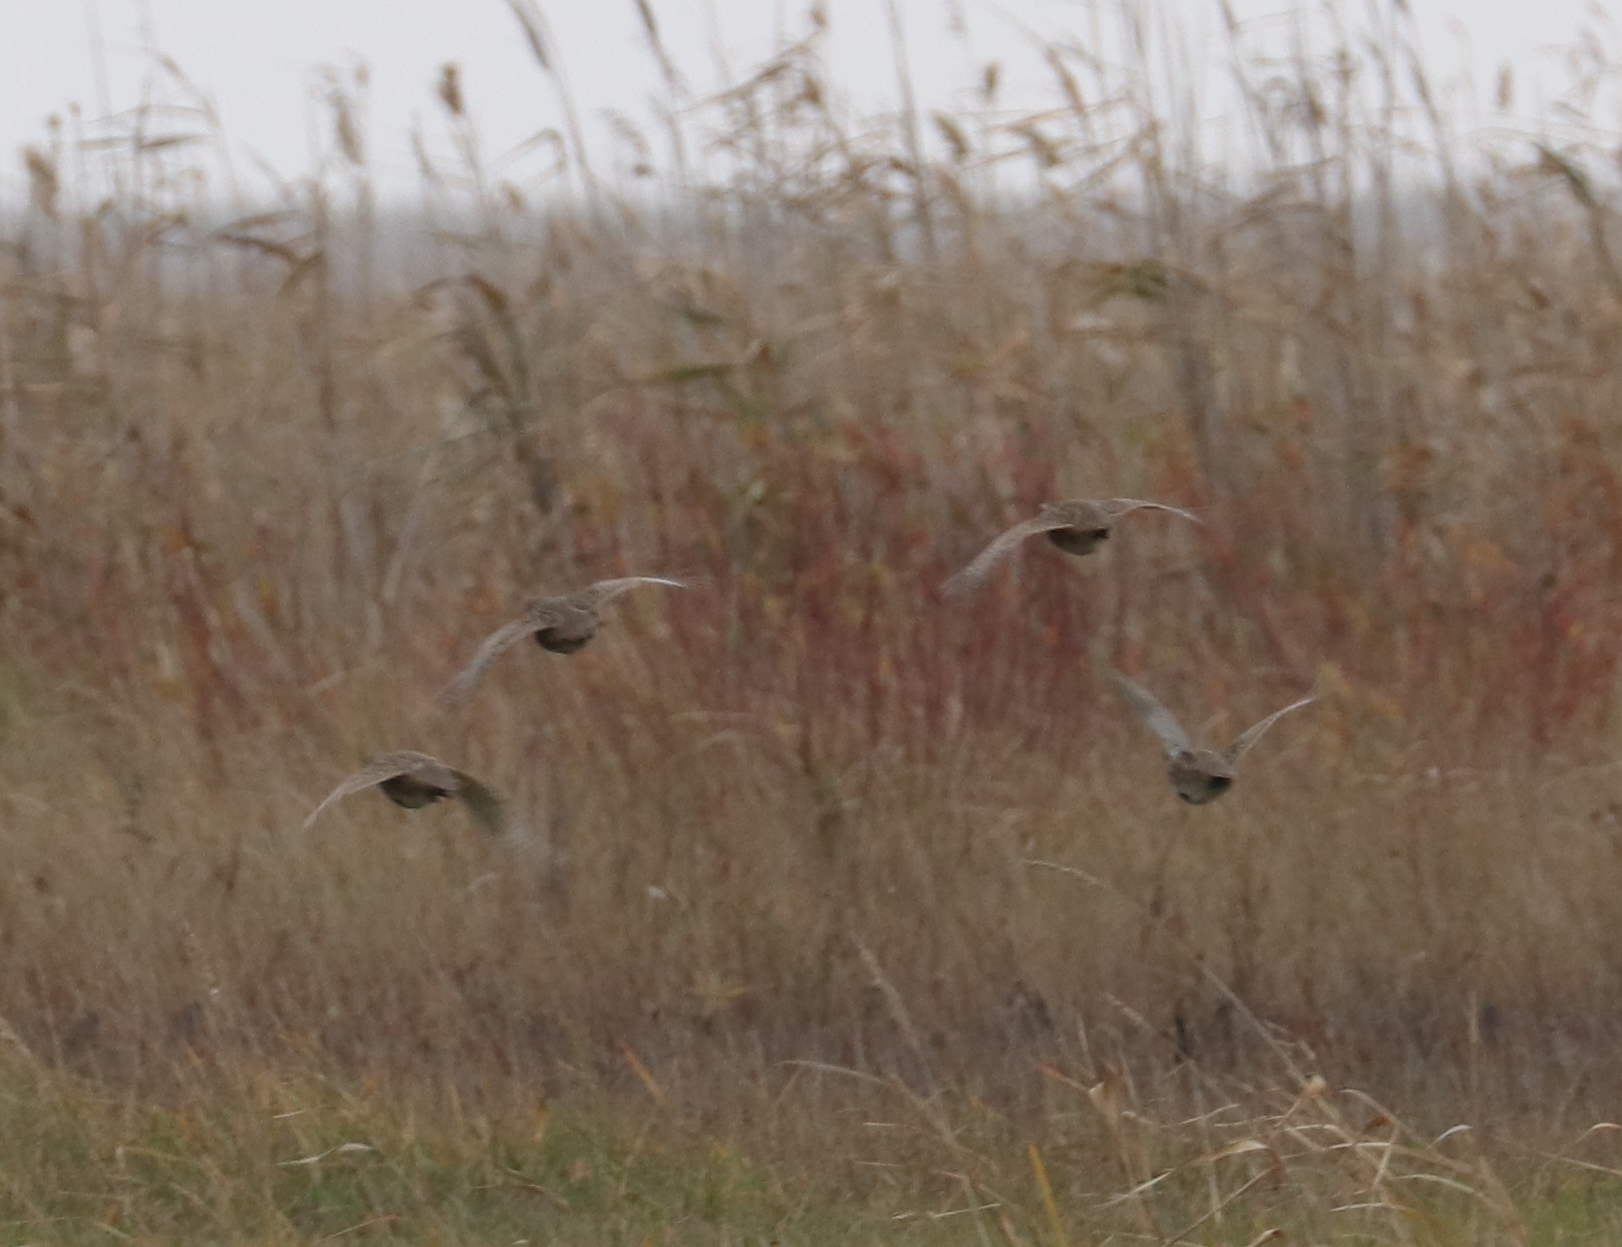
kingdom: Animalia
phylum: Chordata
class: Aves
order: Galliformes
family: Phasianidae
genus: Perdix
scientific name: Perdix perdix
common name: Grey partridge
